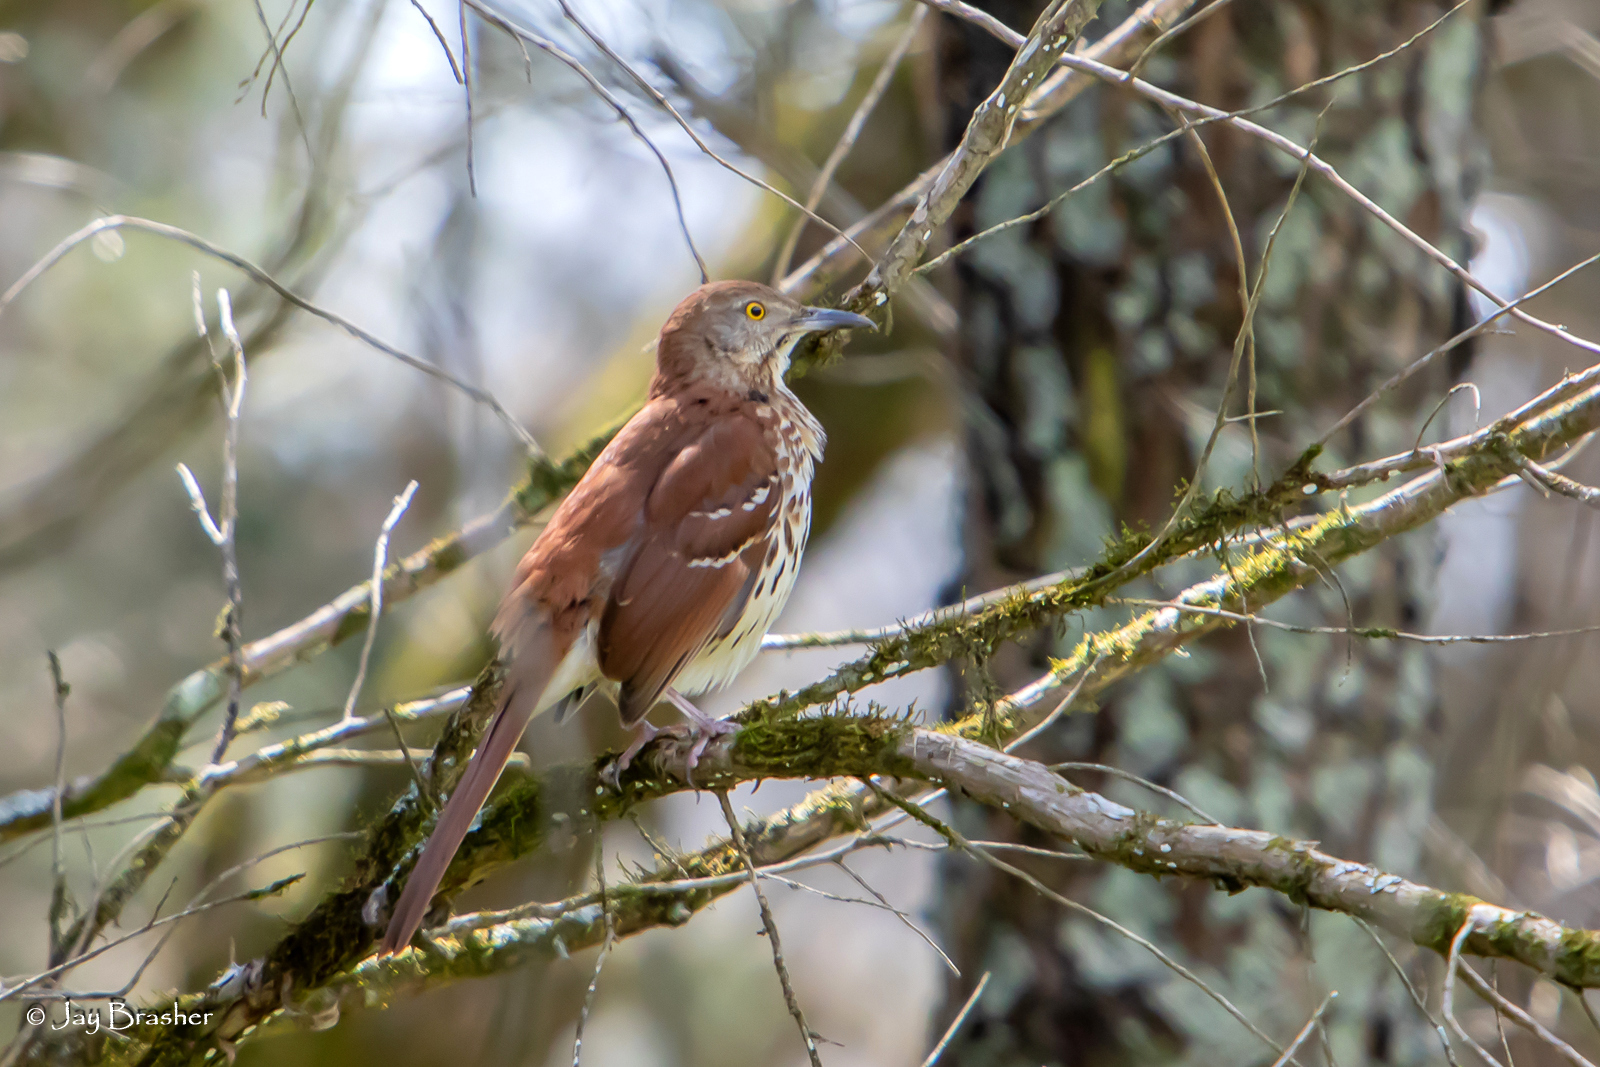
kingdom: Animalia
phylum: Chordata
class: Aves
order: Passeriformes
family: Mimidae
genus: Toxostoma
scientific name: Toxostoma rufum
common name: Brown thrasher
